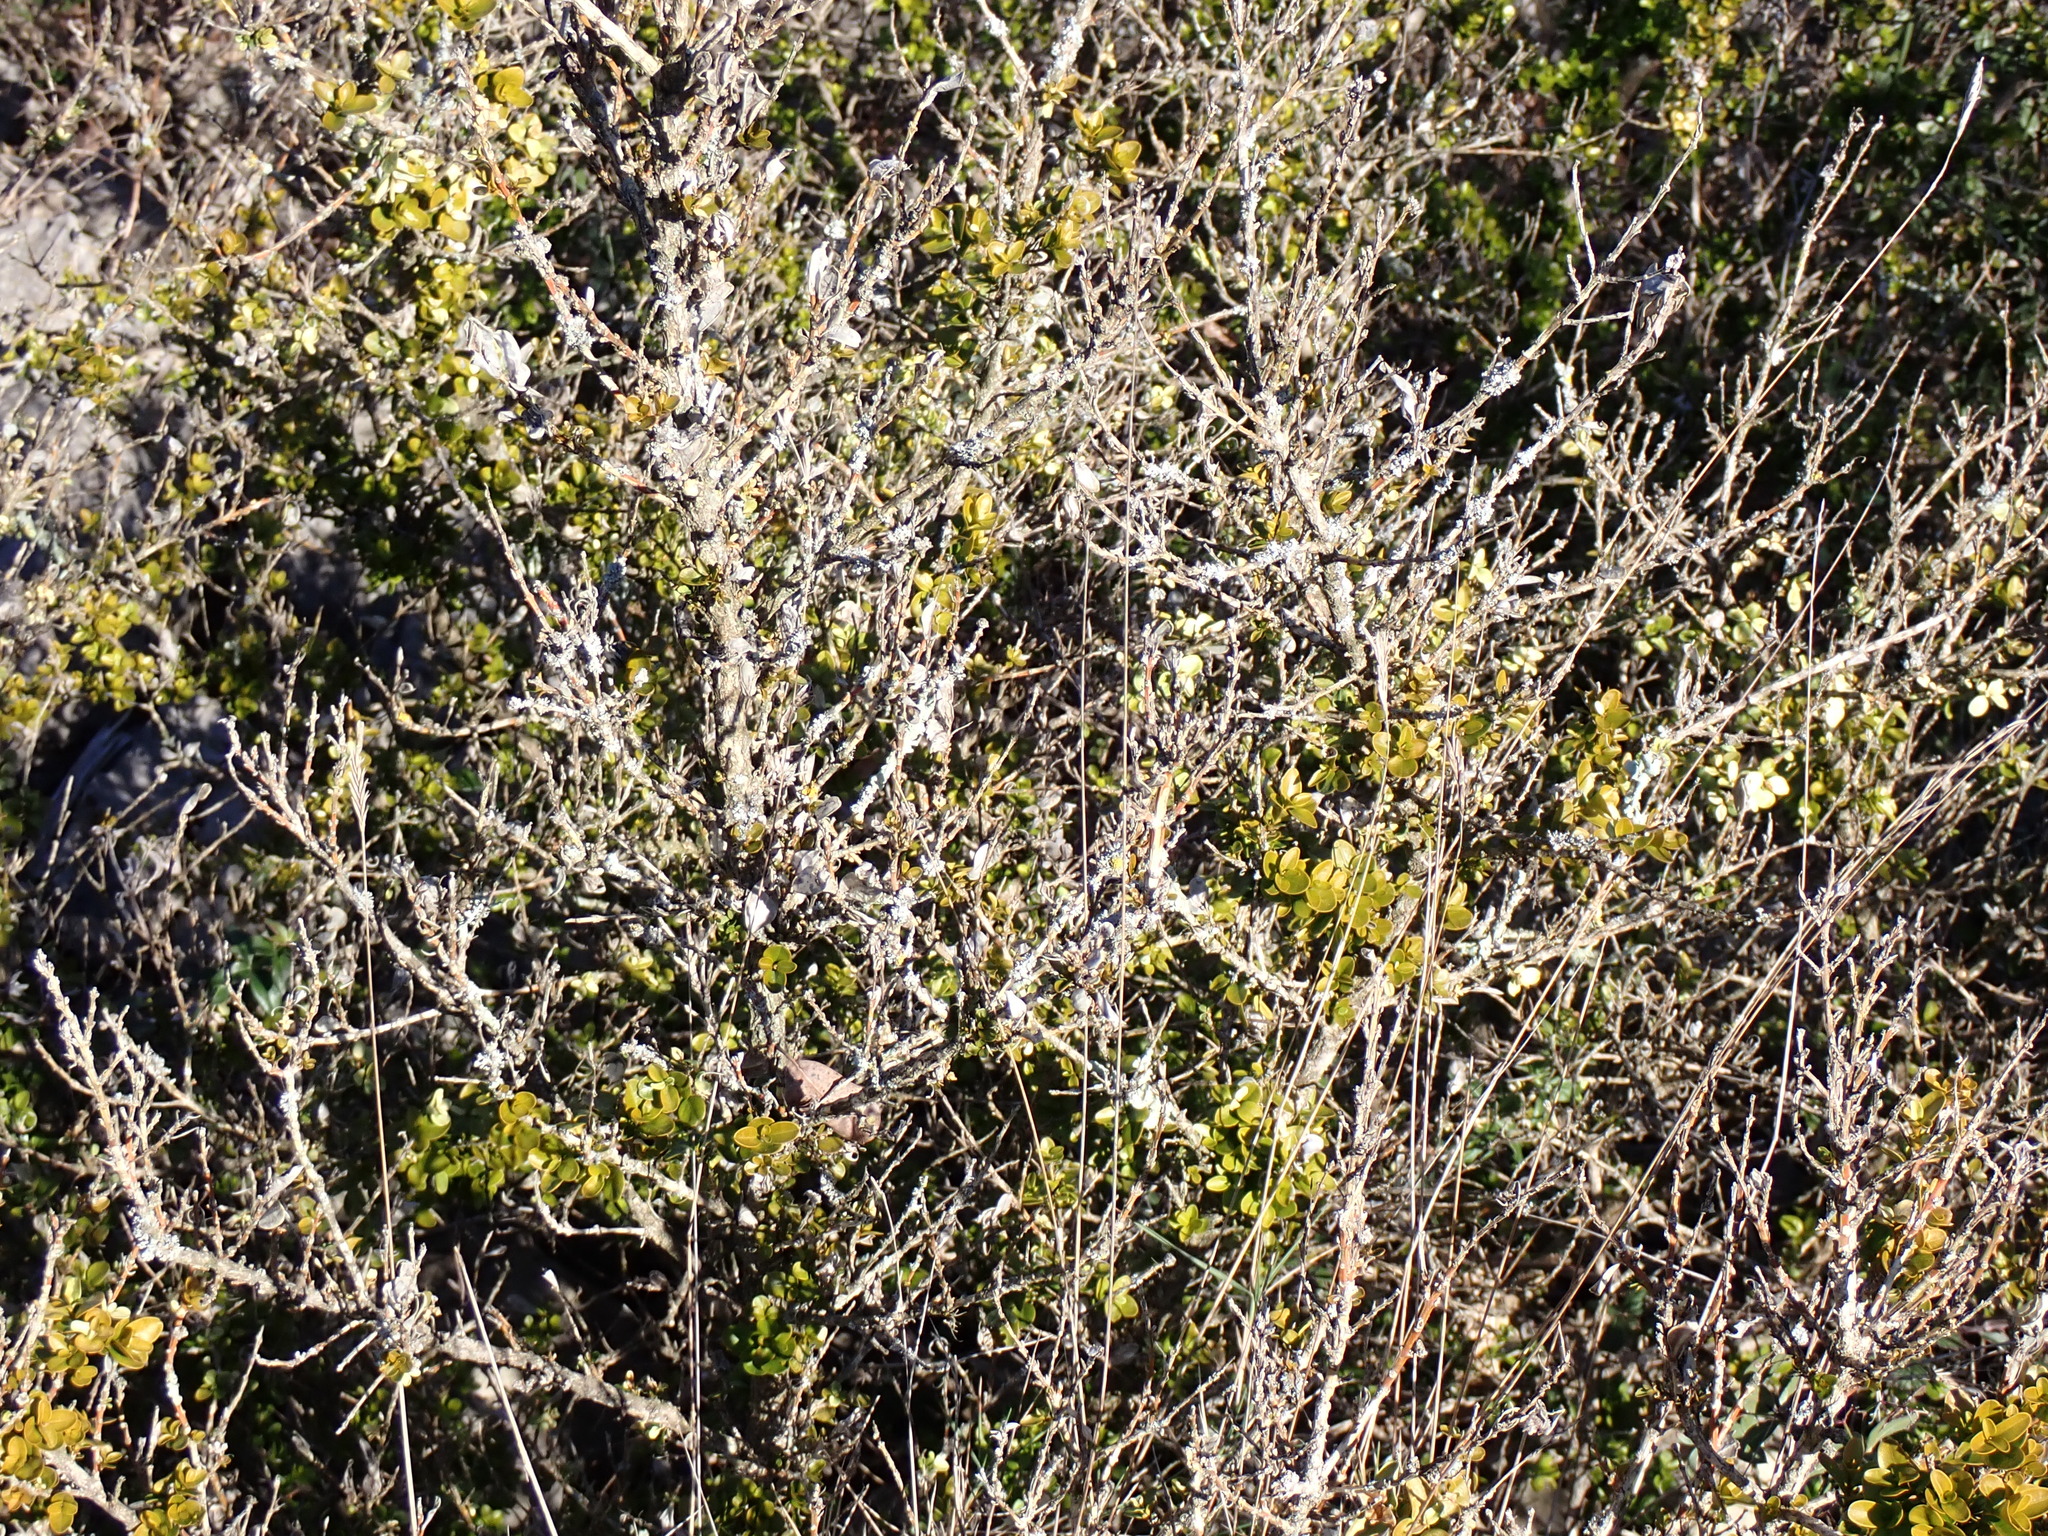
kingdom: Plantae
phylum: Tracheophyta
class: Magnoliopsida
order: Buxales
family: Buxaceae
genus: Buxus
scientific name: Buxus sempervirens
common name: Box
